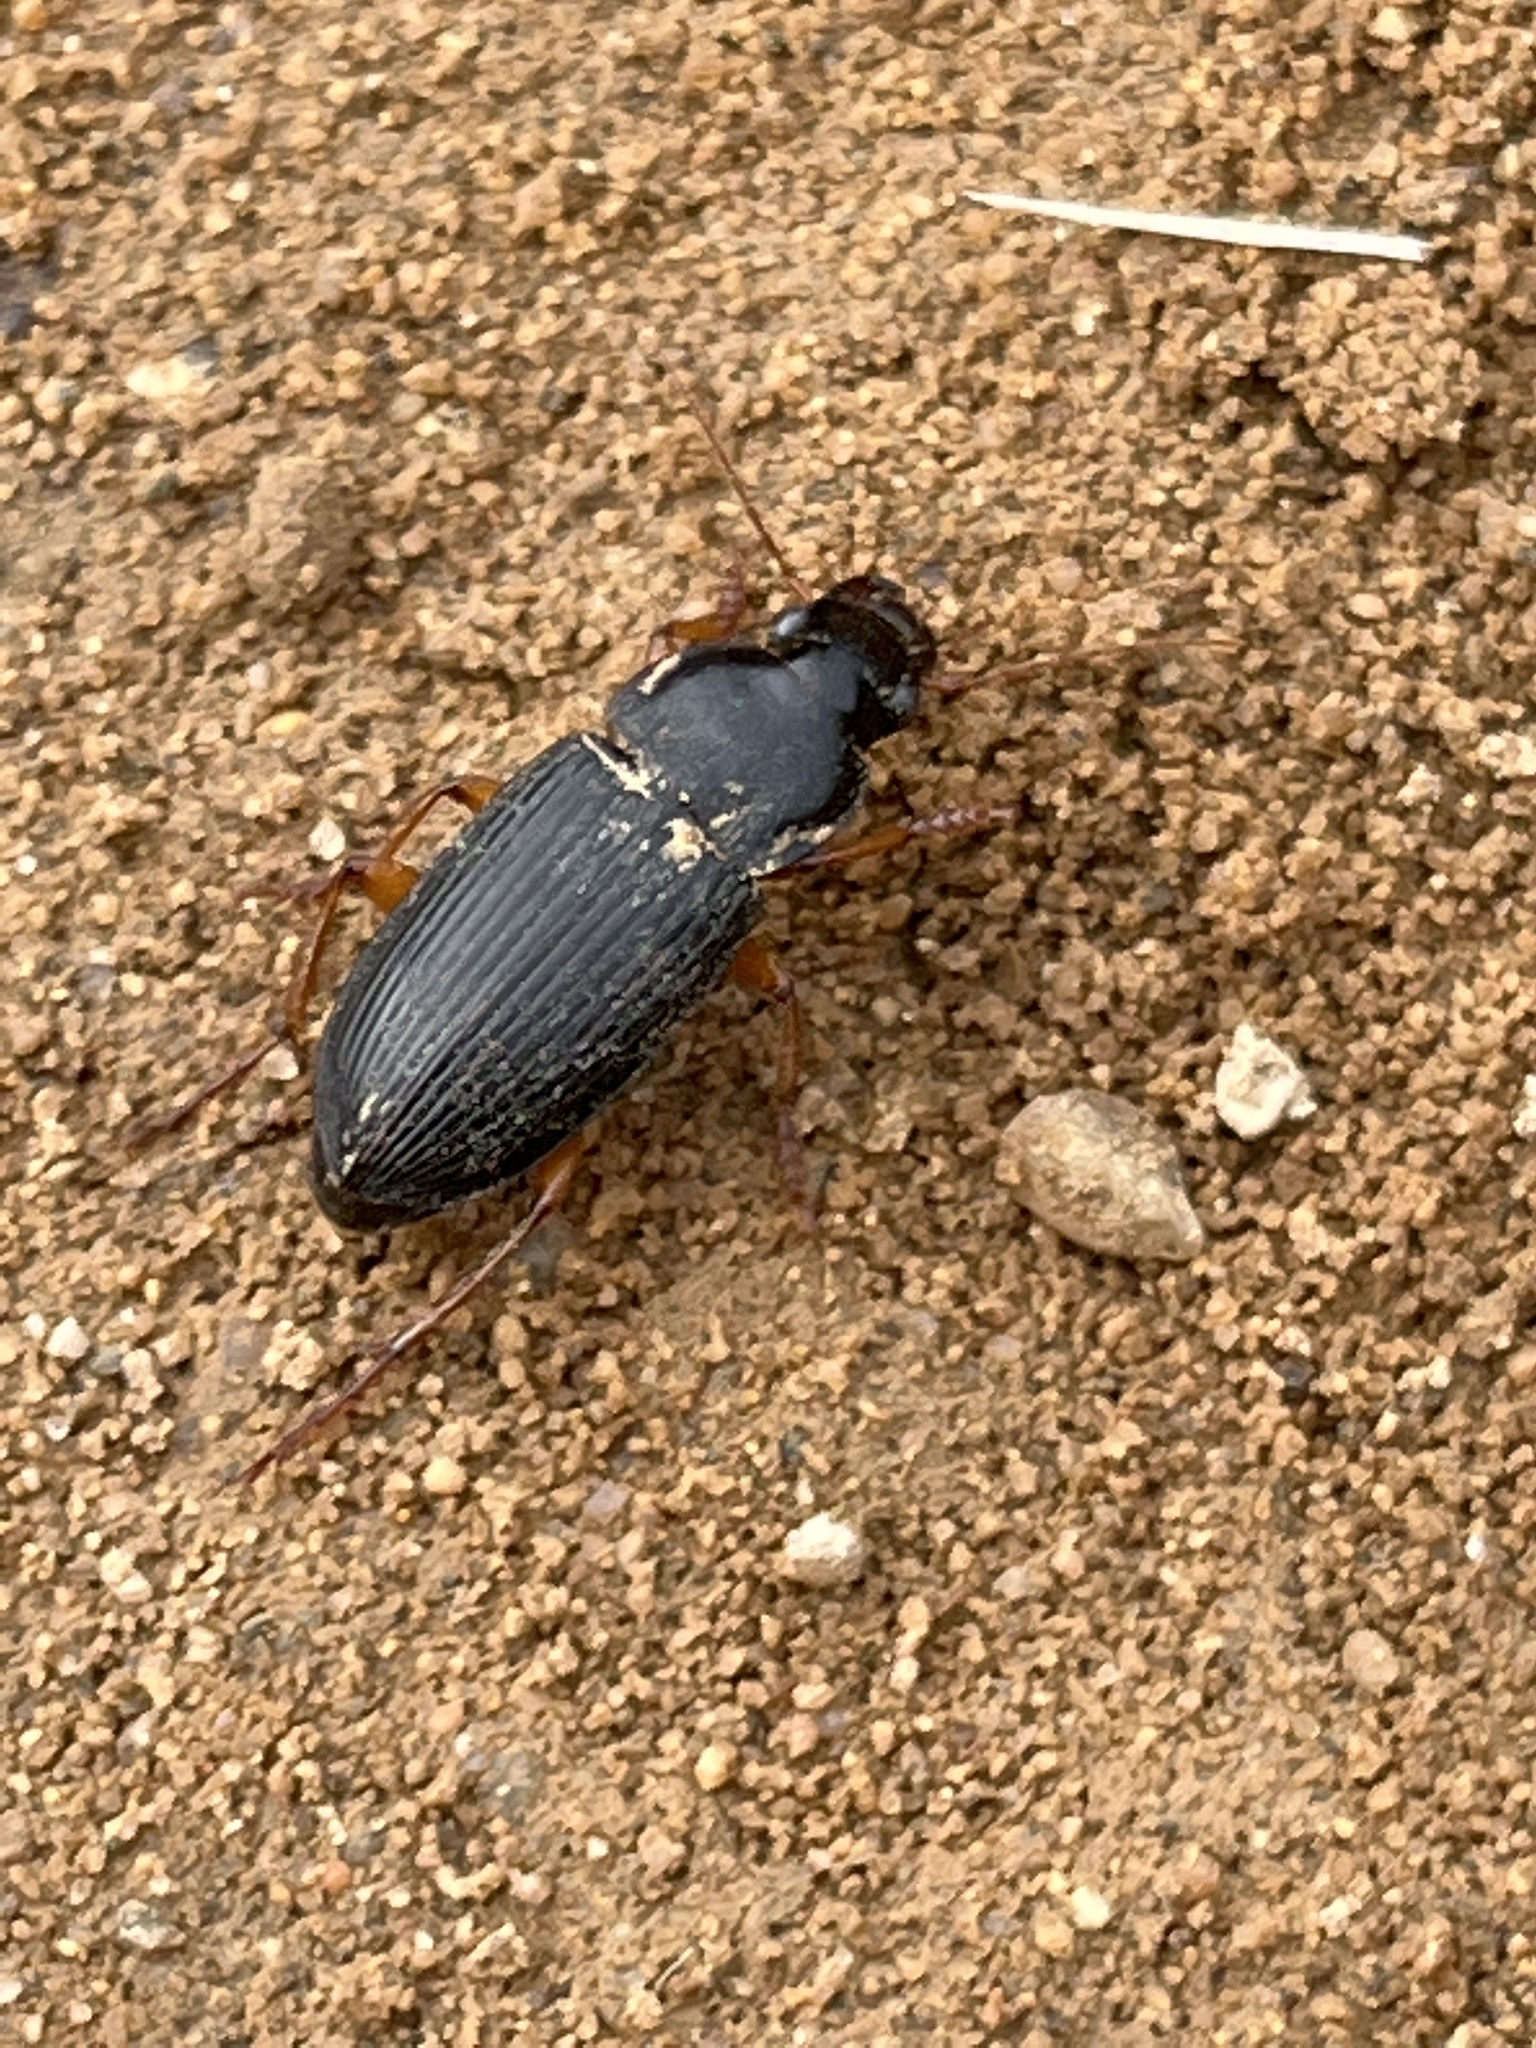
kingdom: Animalia
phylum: Arthropoda
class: Insecta
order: Coleoptera
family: Carabidae
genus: Harpalus
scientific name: Harpalus pensylvanicus
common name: Pennsylvania dingy ground beetle
